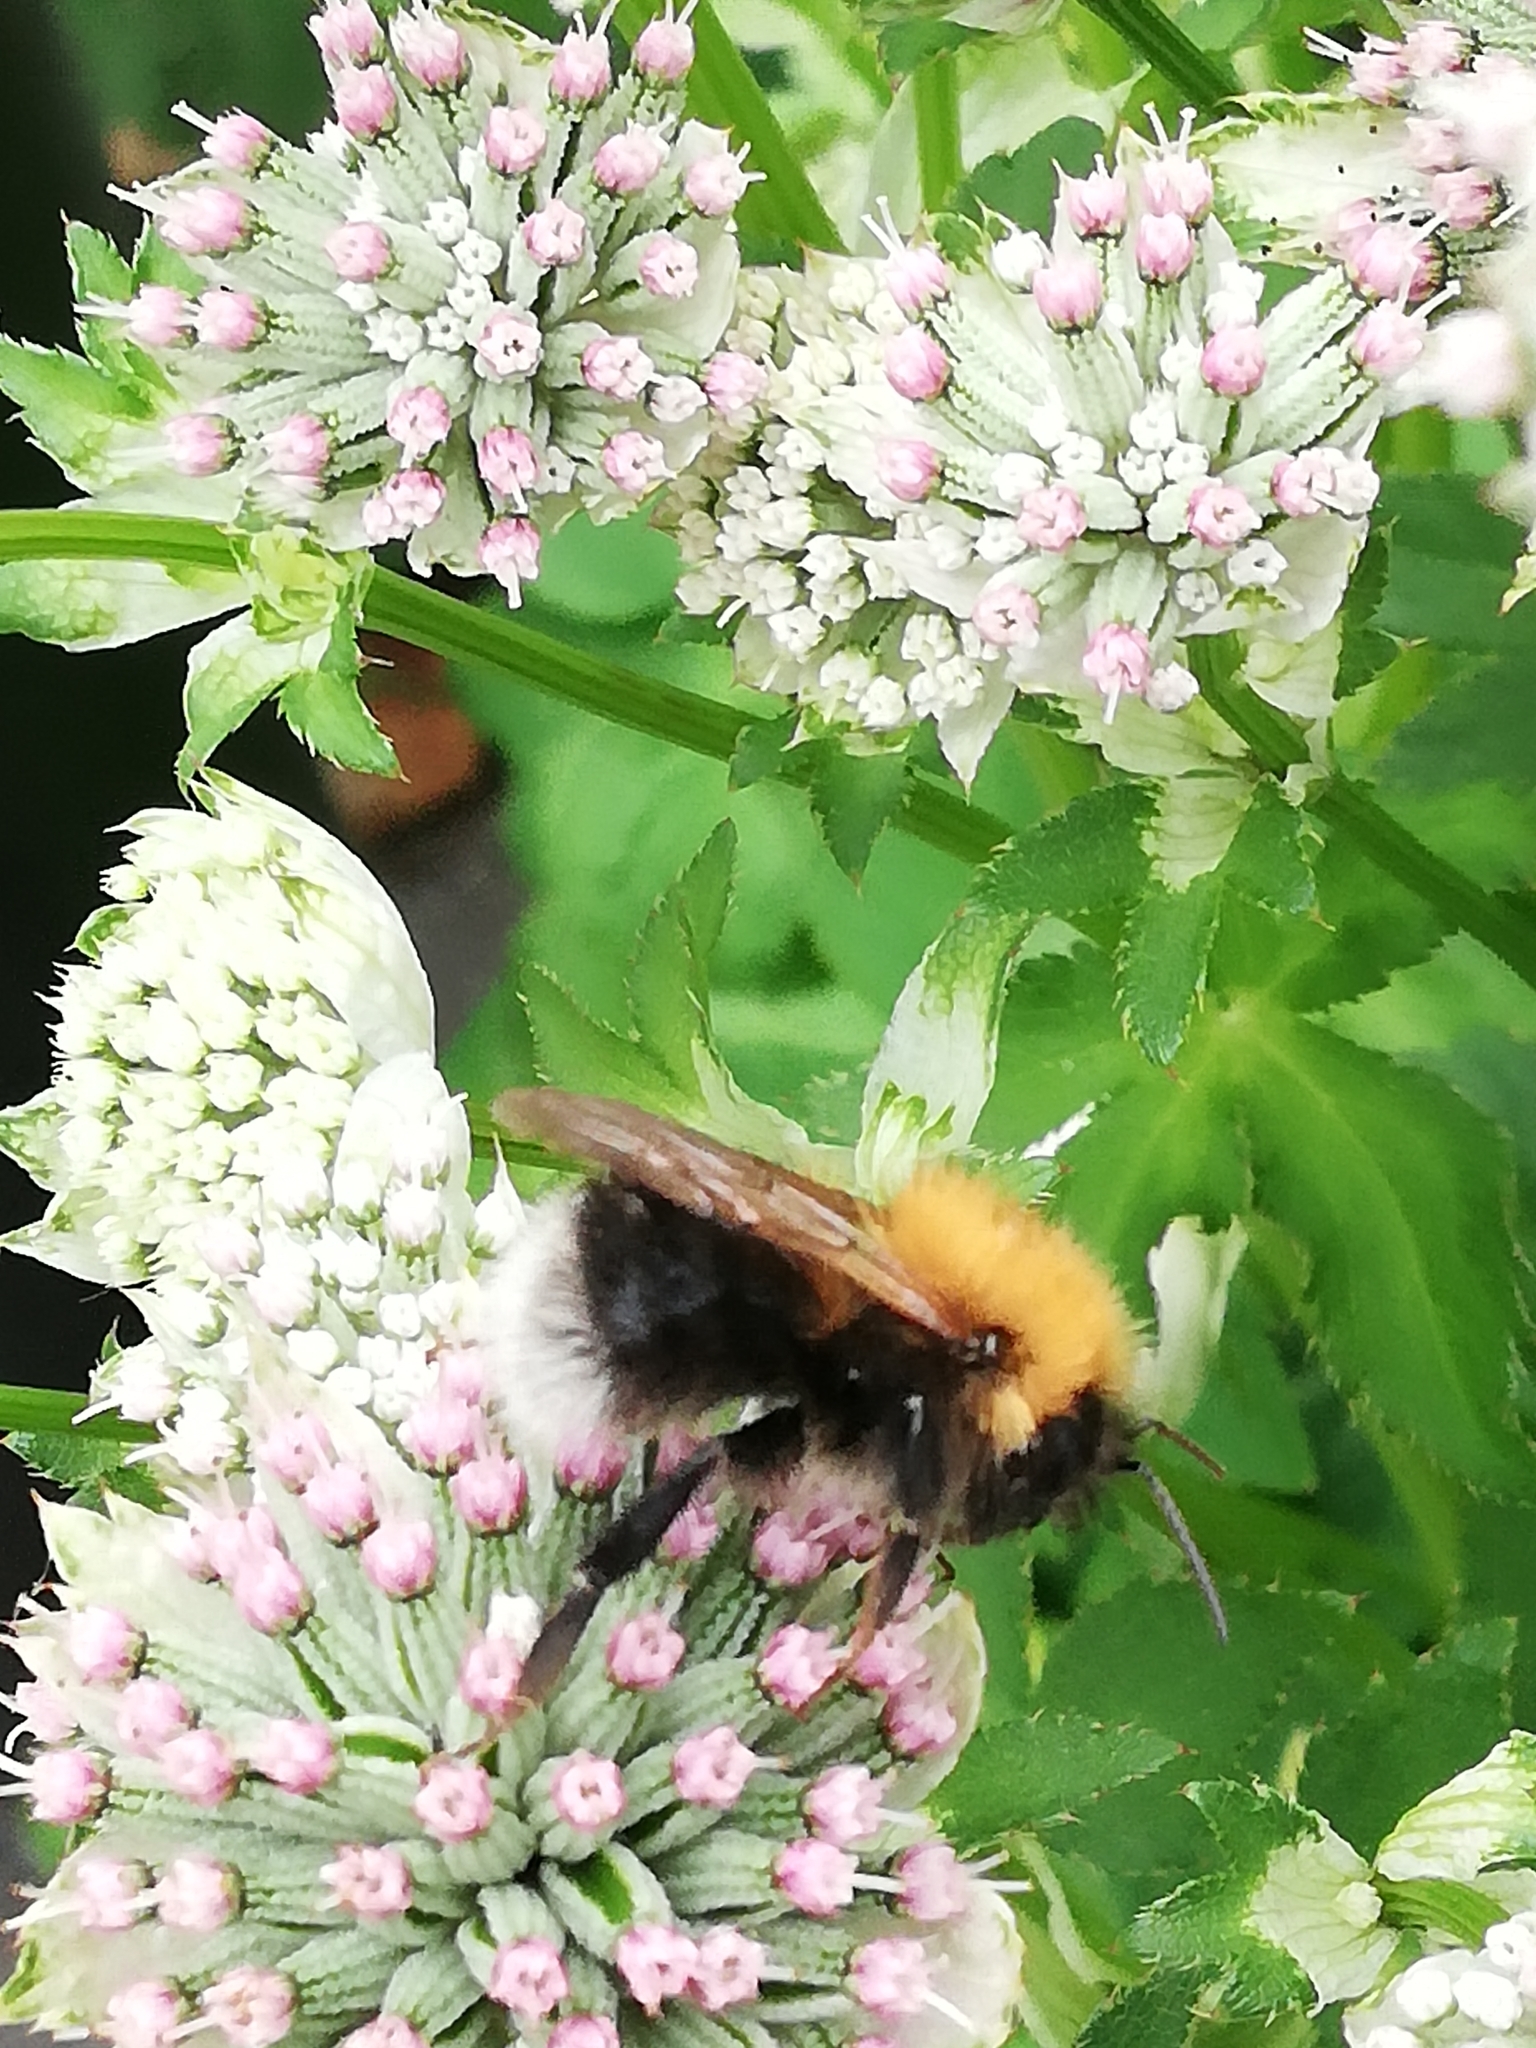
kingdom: Animalia
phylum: Arthropoda
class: Insecta
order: Hymenoptera
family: Apidae
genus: Bombus
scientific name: Bombus hypnorum
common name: New garden bumblebee
